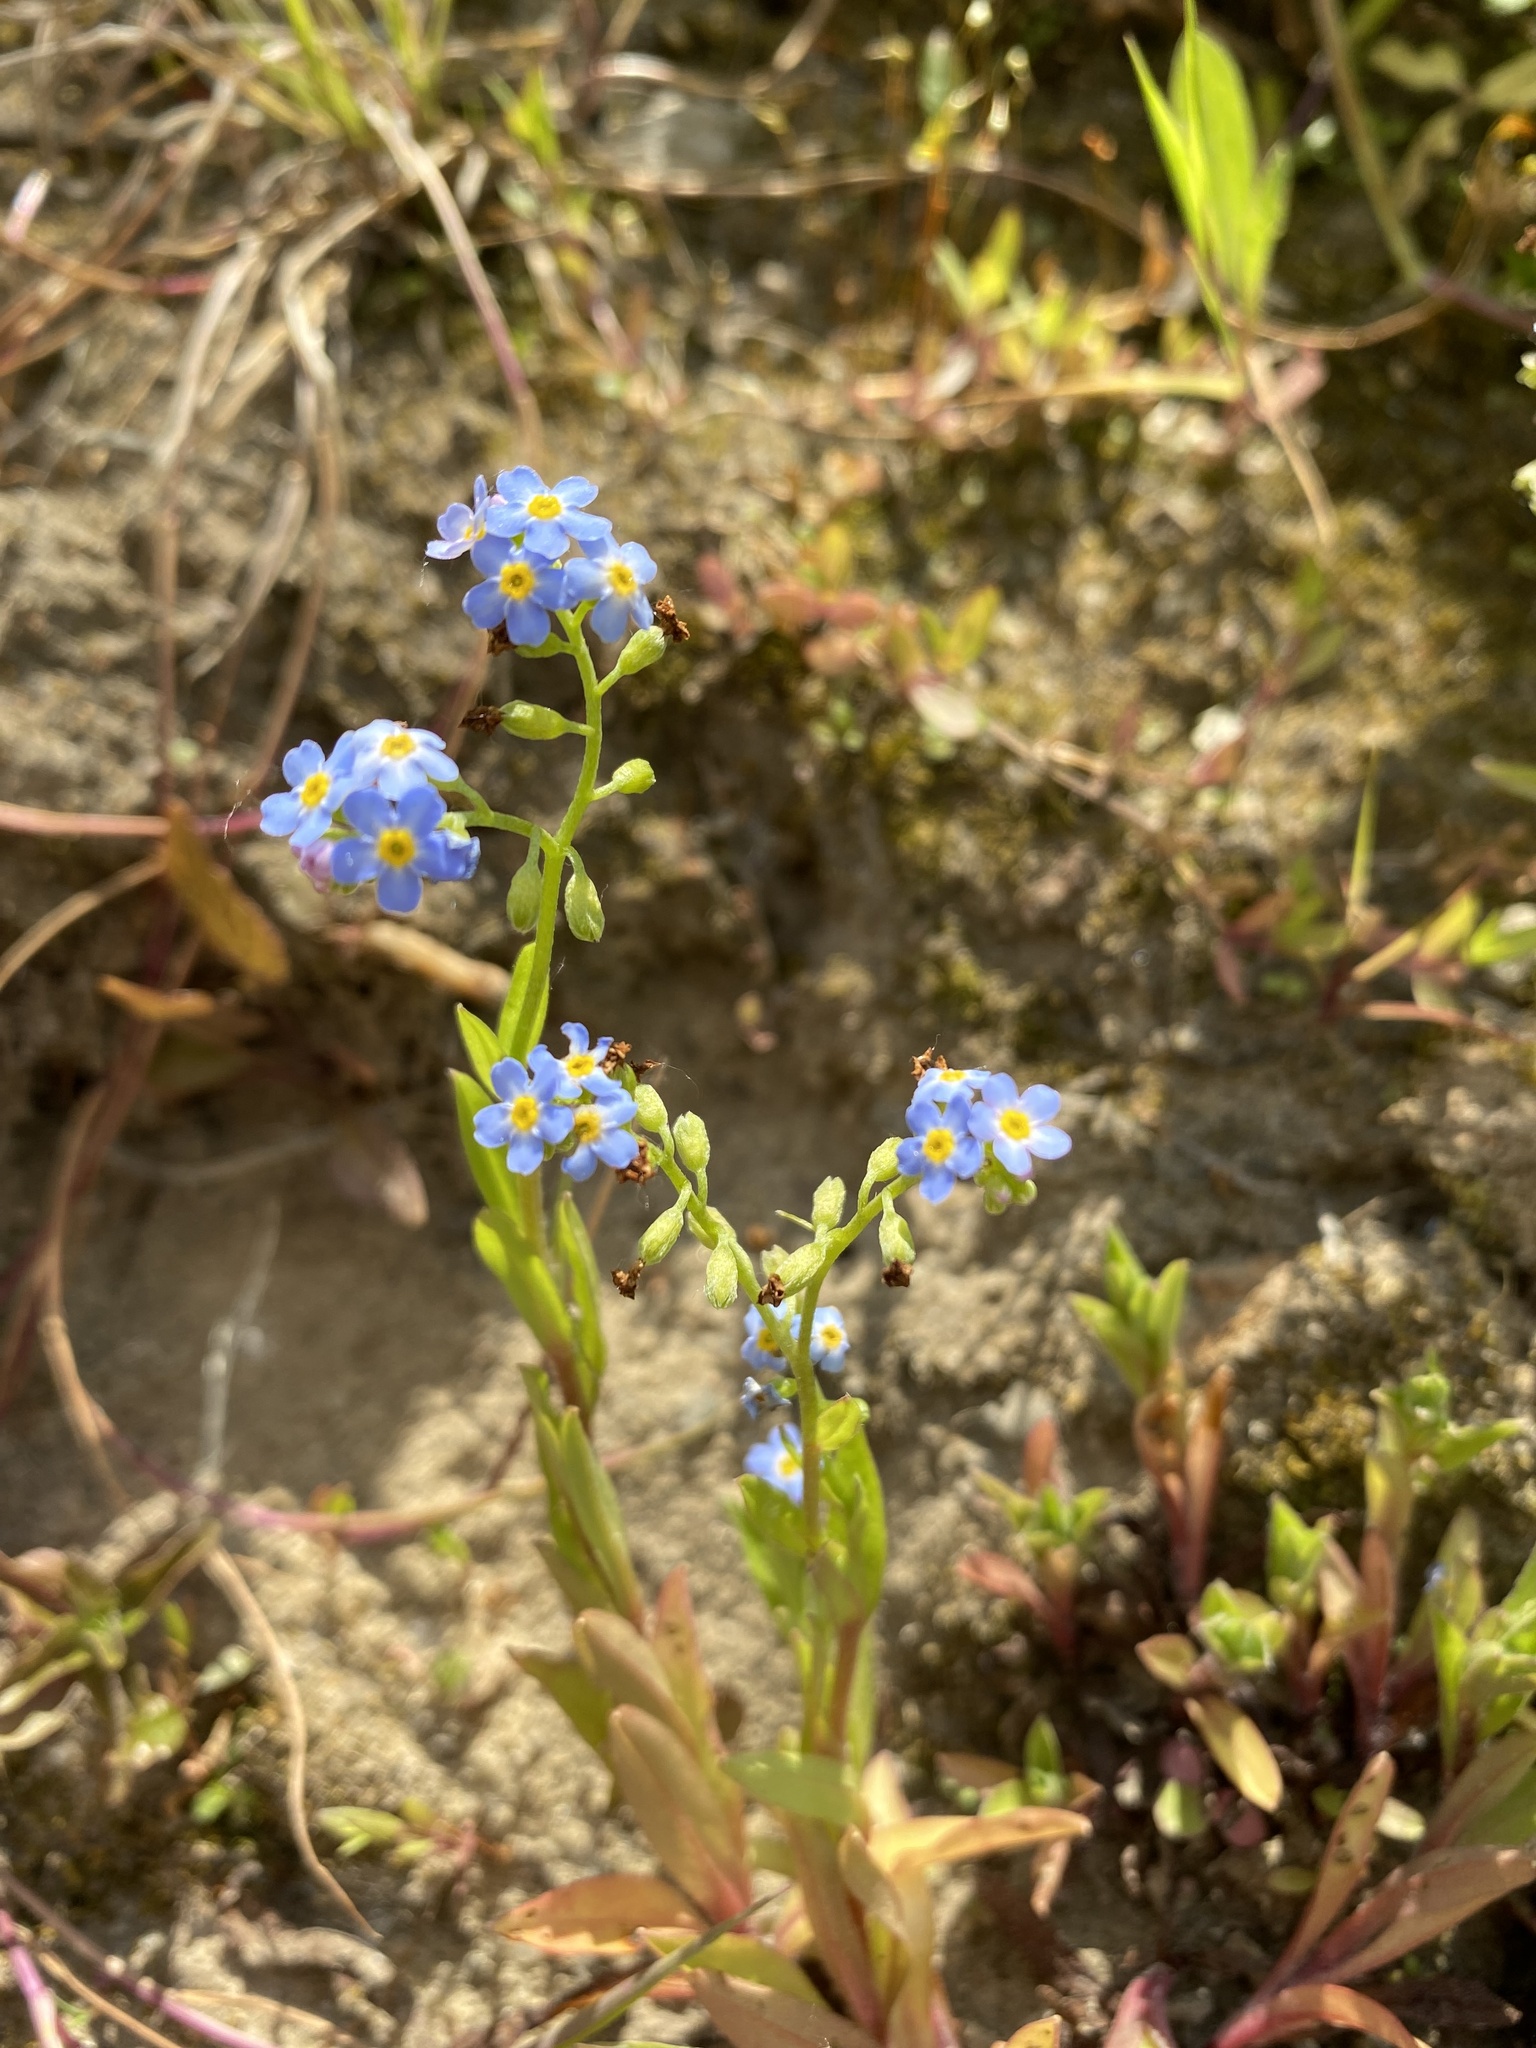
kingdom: Plantae
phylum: Tracheophyta
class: Magnoliopsida
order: Boraginales
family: Boraginaceae
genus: Myosotis
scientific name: Myosotis scorpioides
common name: Water forget-me-not
